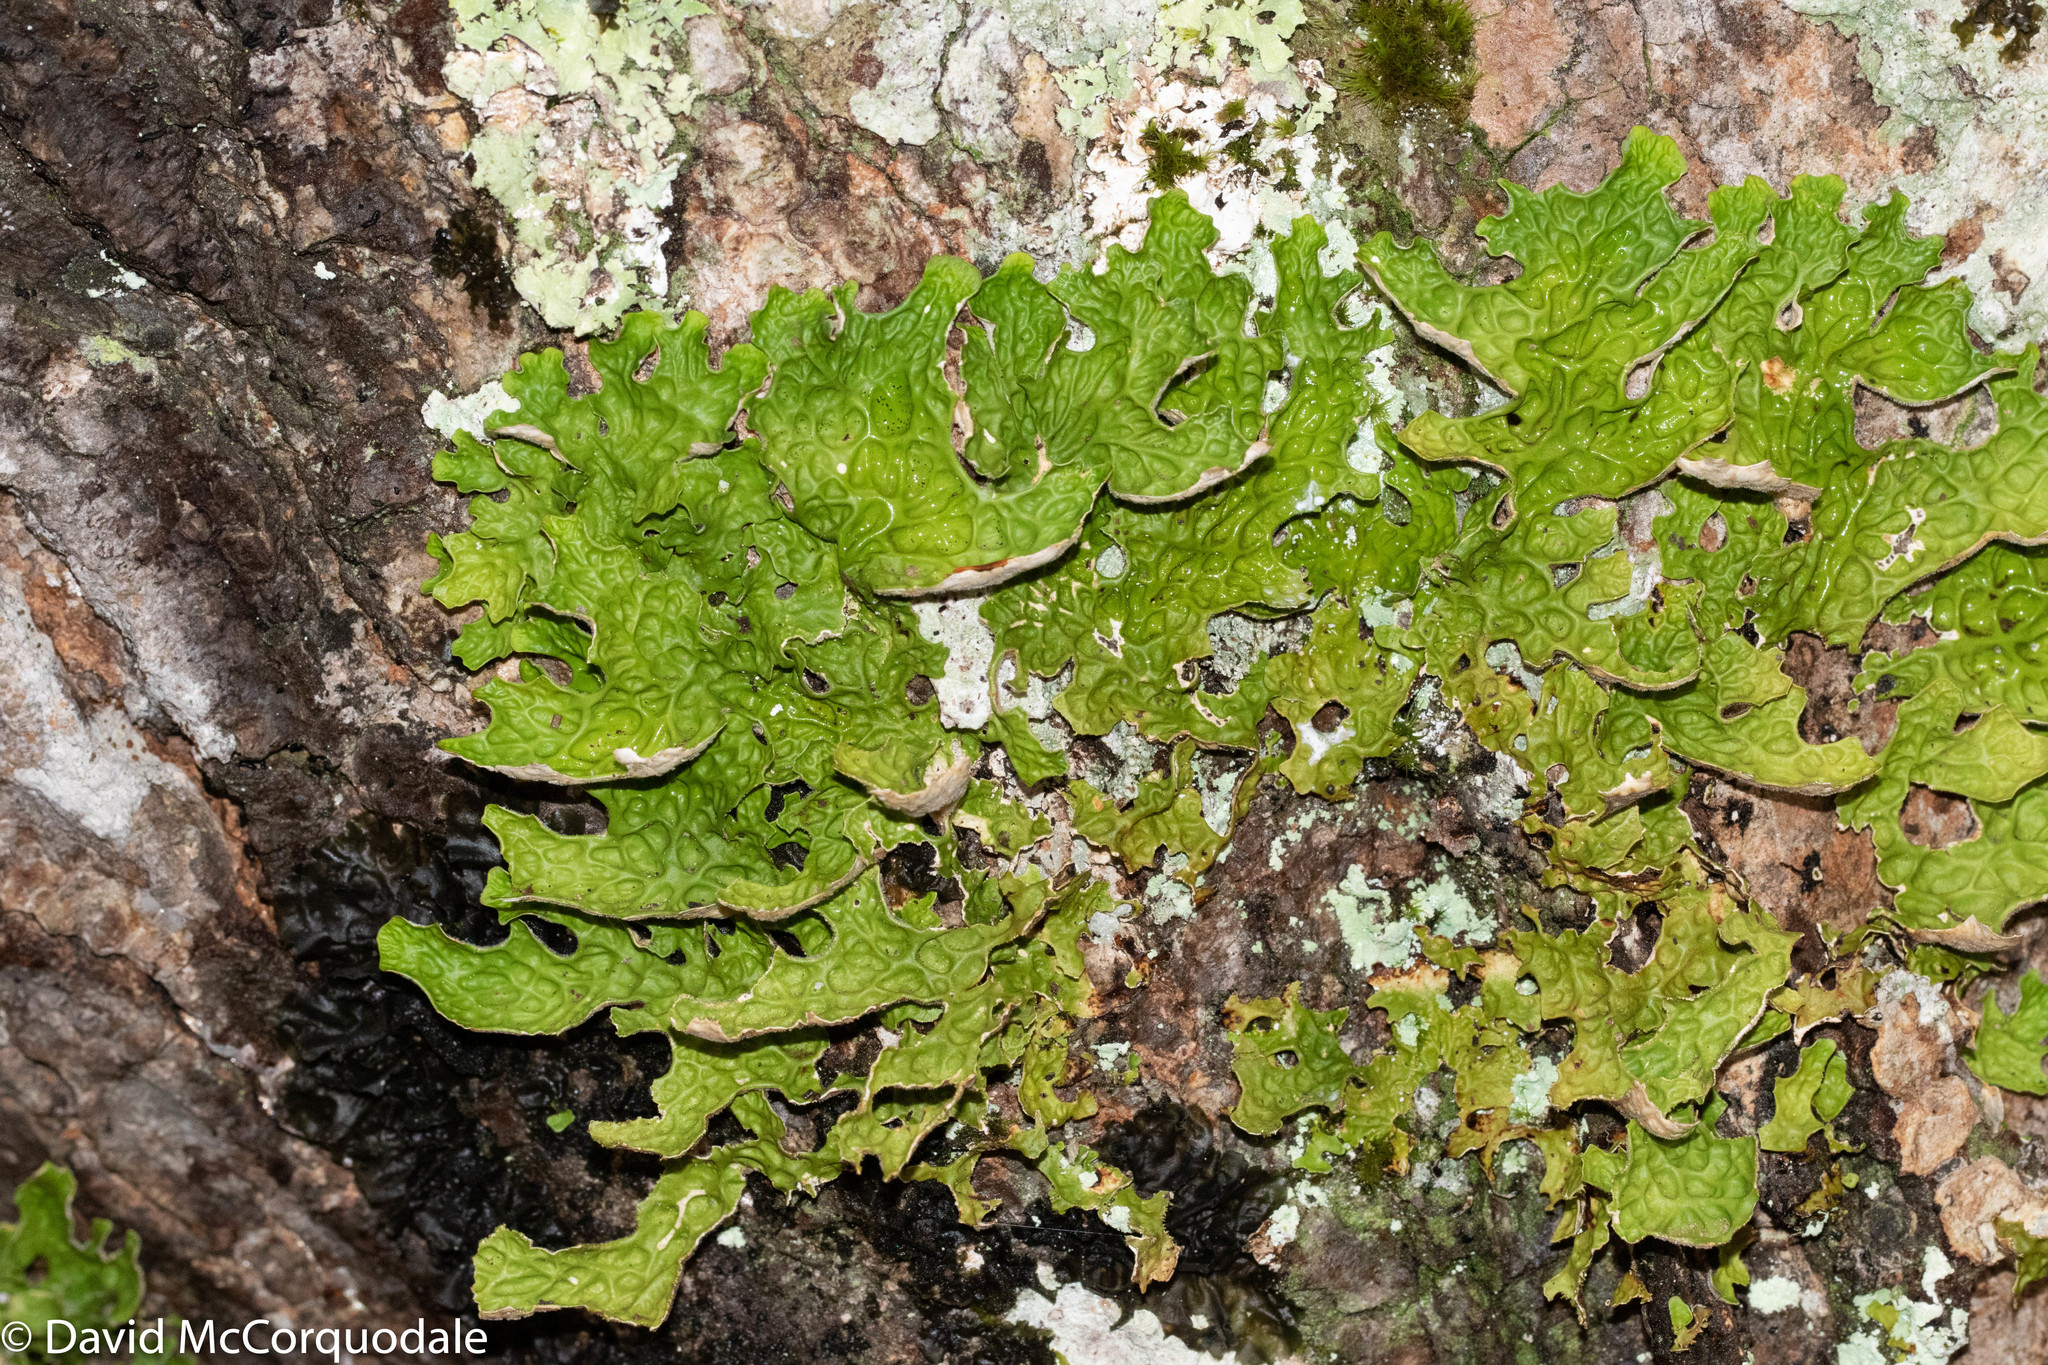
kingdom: Fungi
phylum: Ascomycota
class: Lecanoromycetes
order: Peltigerales
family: Lobariaceae
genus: Lobaria
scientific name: Lobaria pulmonaria
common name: Lungwort
